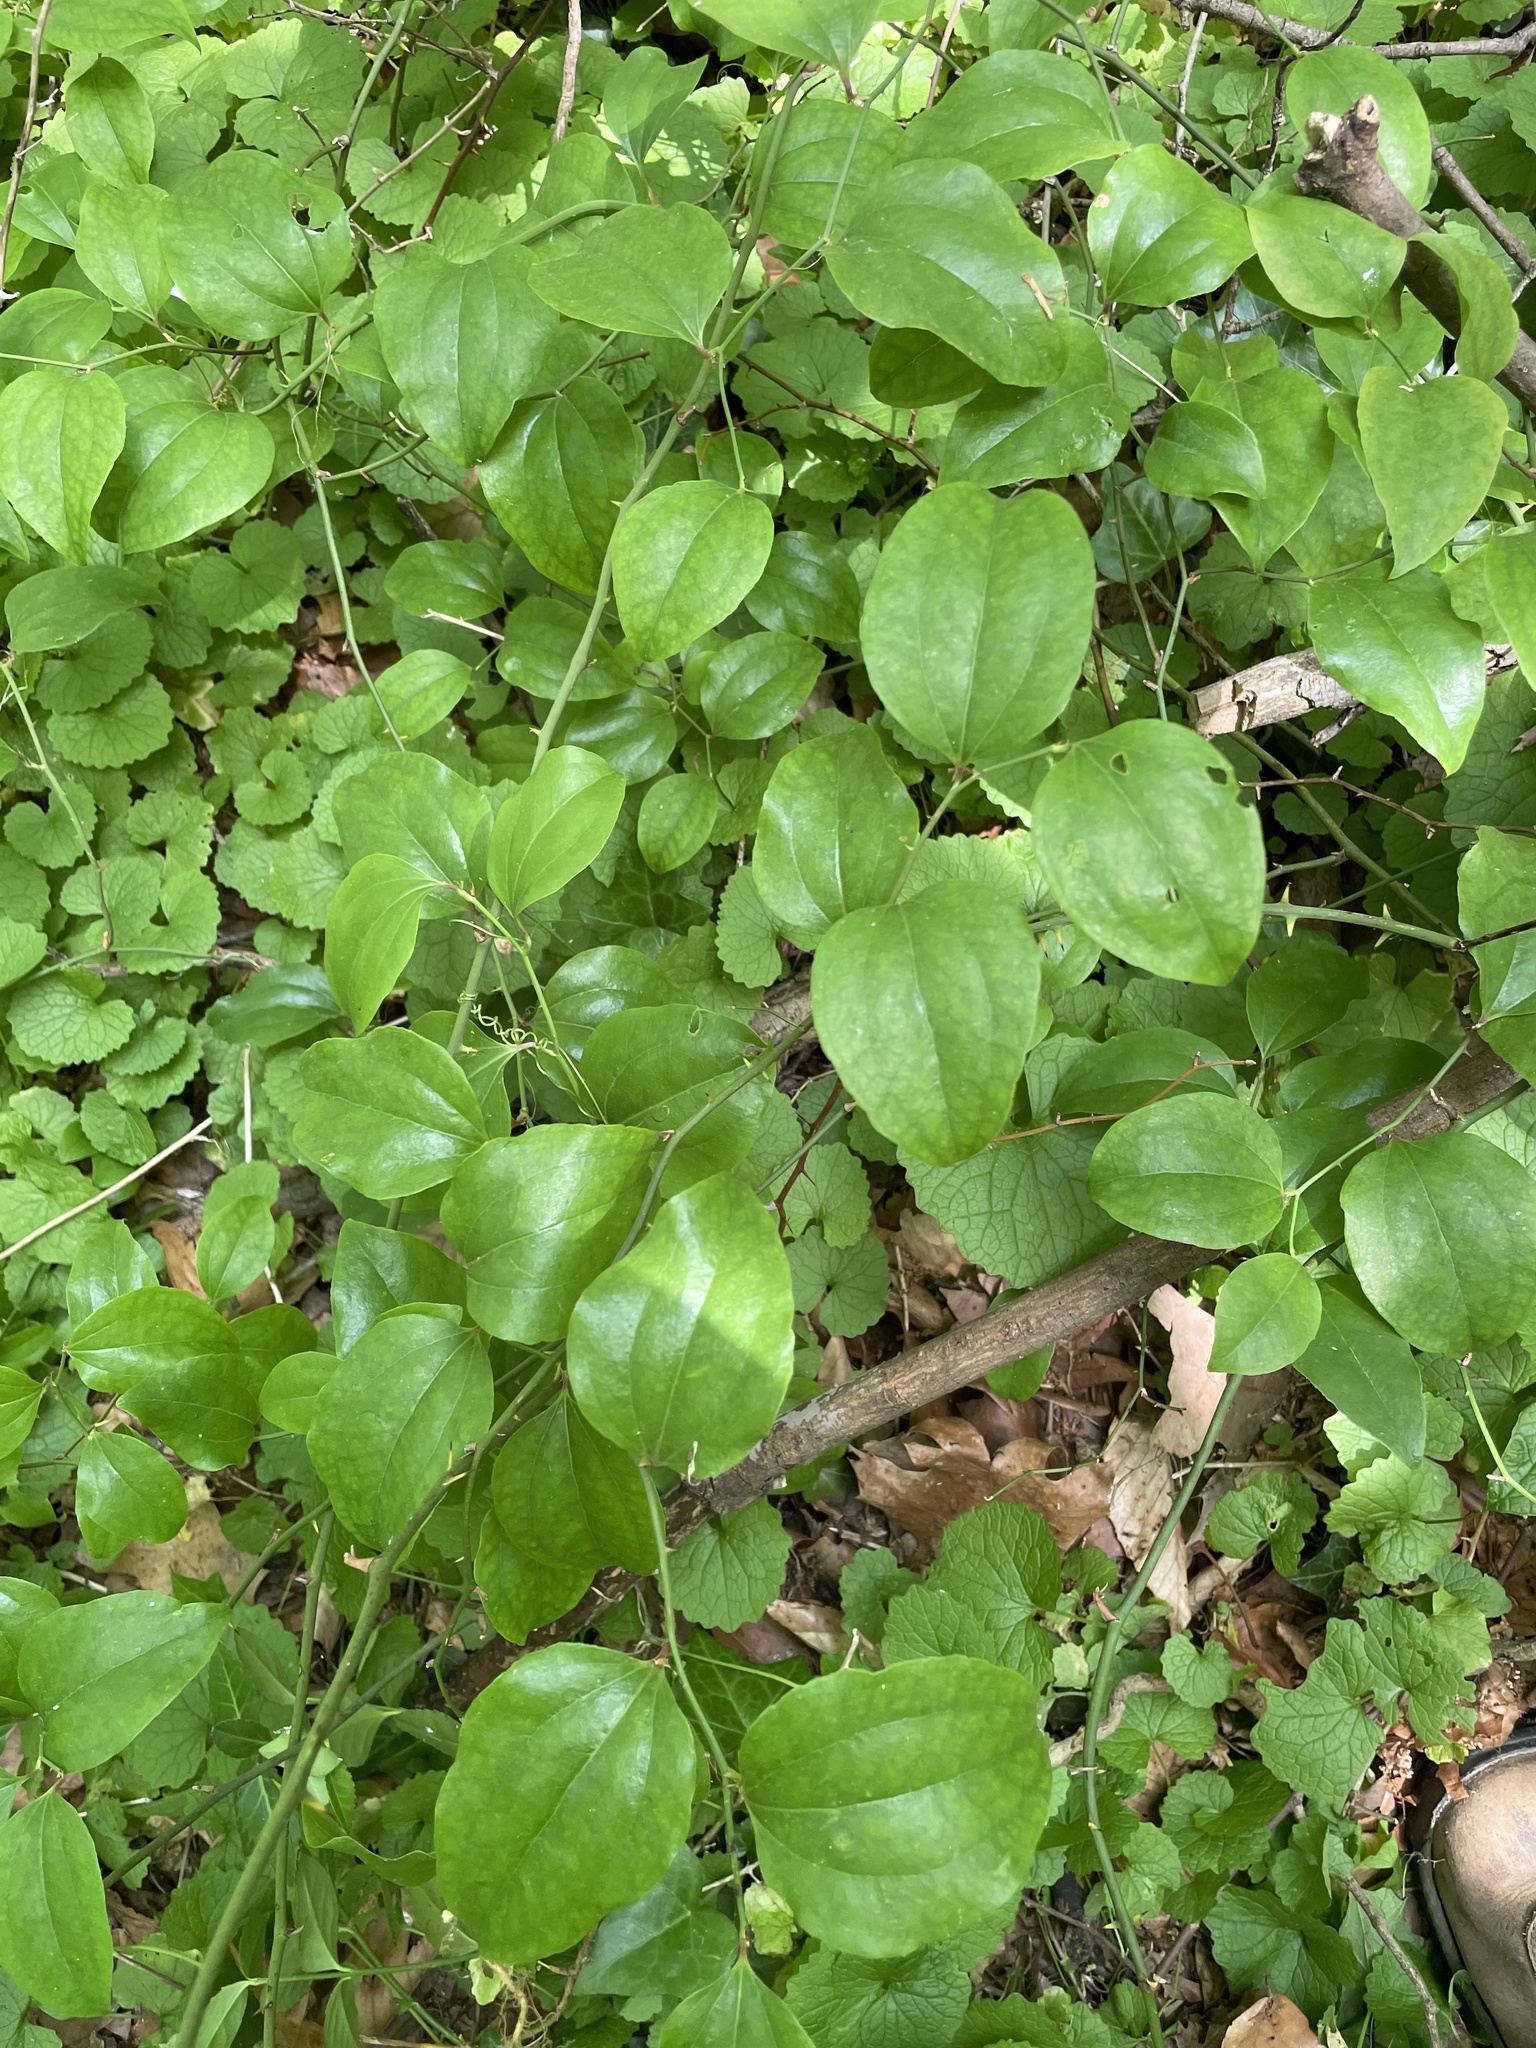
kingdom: Plantae
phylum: Tracheophyta
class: Liliopsida
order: Liliales
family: Smilacaceae
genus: Smilax
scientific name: Smilax rotundifolia
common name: Bullbriar
